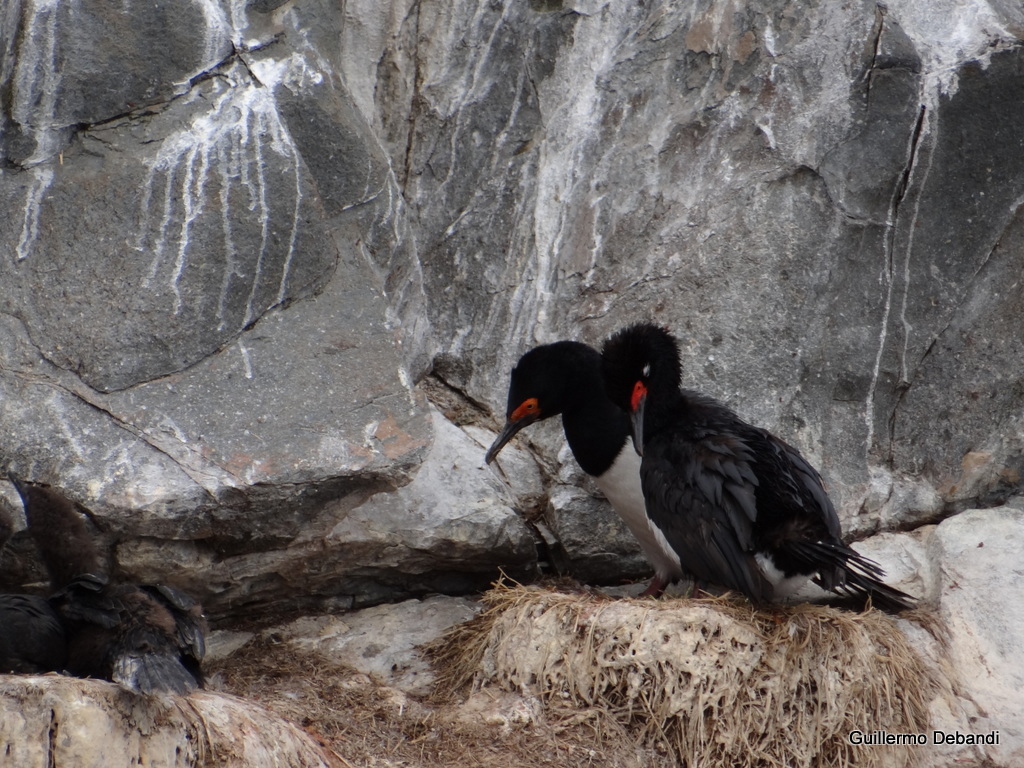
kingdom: Animalia
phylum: Chordata
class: Aves
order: Suliformes
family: Phalacrocoracidae
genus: Phalacrocorax
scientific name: Phalacrocorax magellanicus
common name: Rock shag
